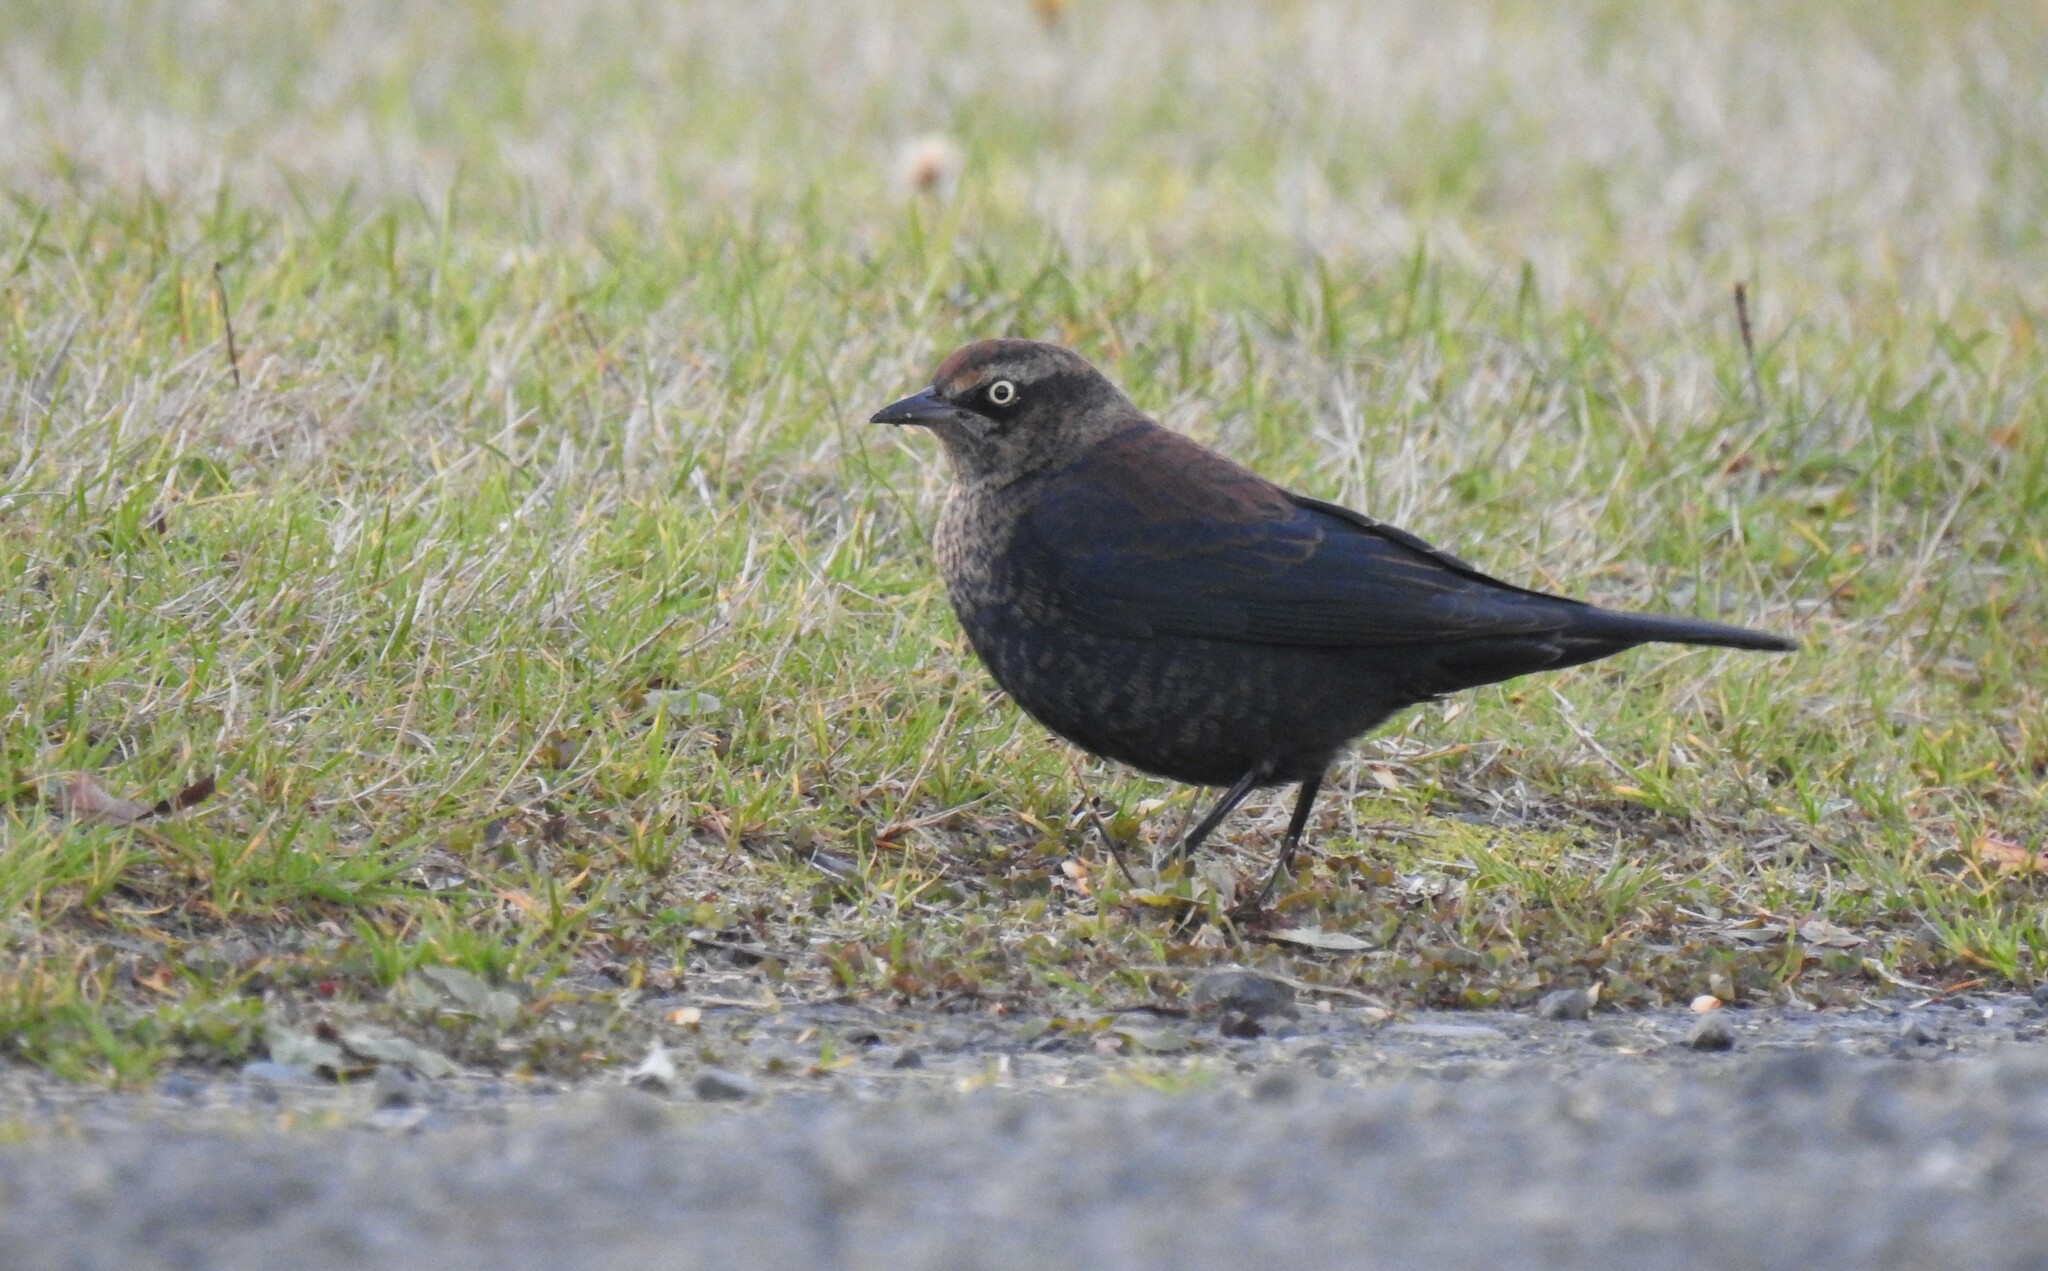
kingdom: Animalia
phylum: Chordata
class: Aves
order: Passeriformes
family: Icteridae
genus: Euphagus
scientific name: Euphagus carolinus
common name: Rusty blackbird
